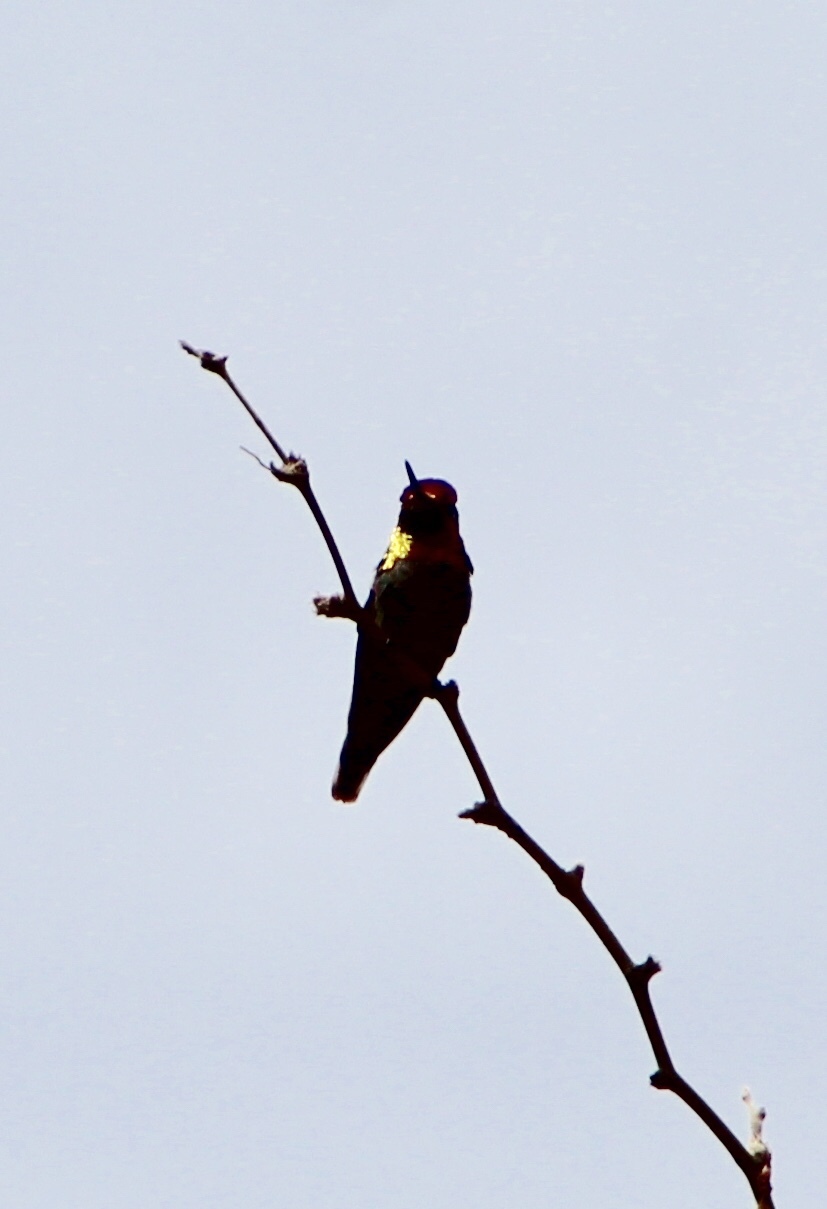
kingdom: Animalia
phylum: Chordata
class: Aves
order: Apodiformes
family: Trochilidae
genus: Calypte
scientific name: Calypte anna
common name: Anna's hummingbird
